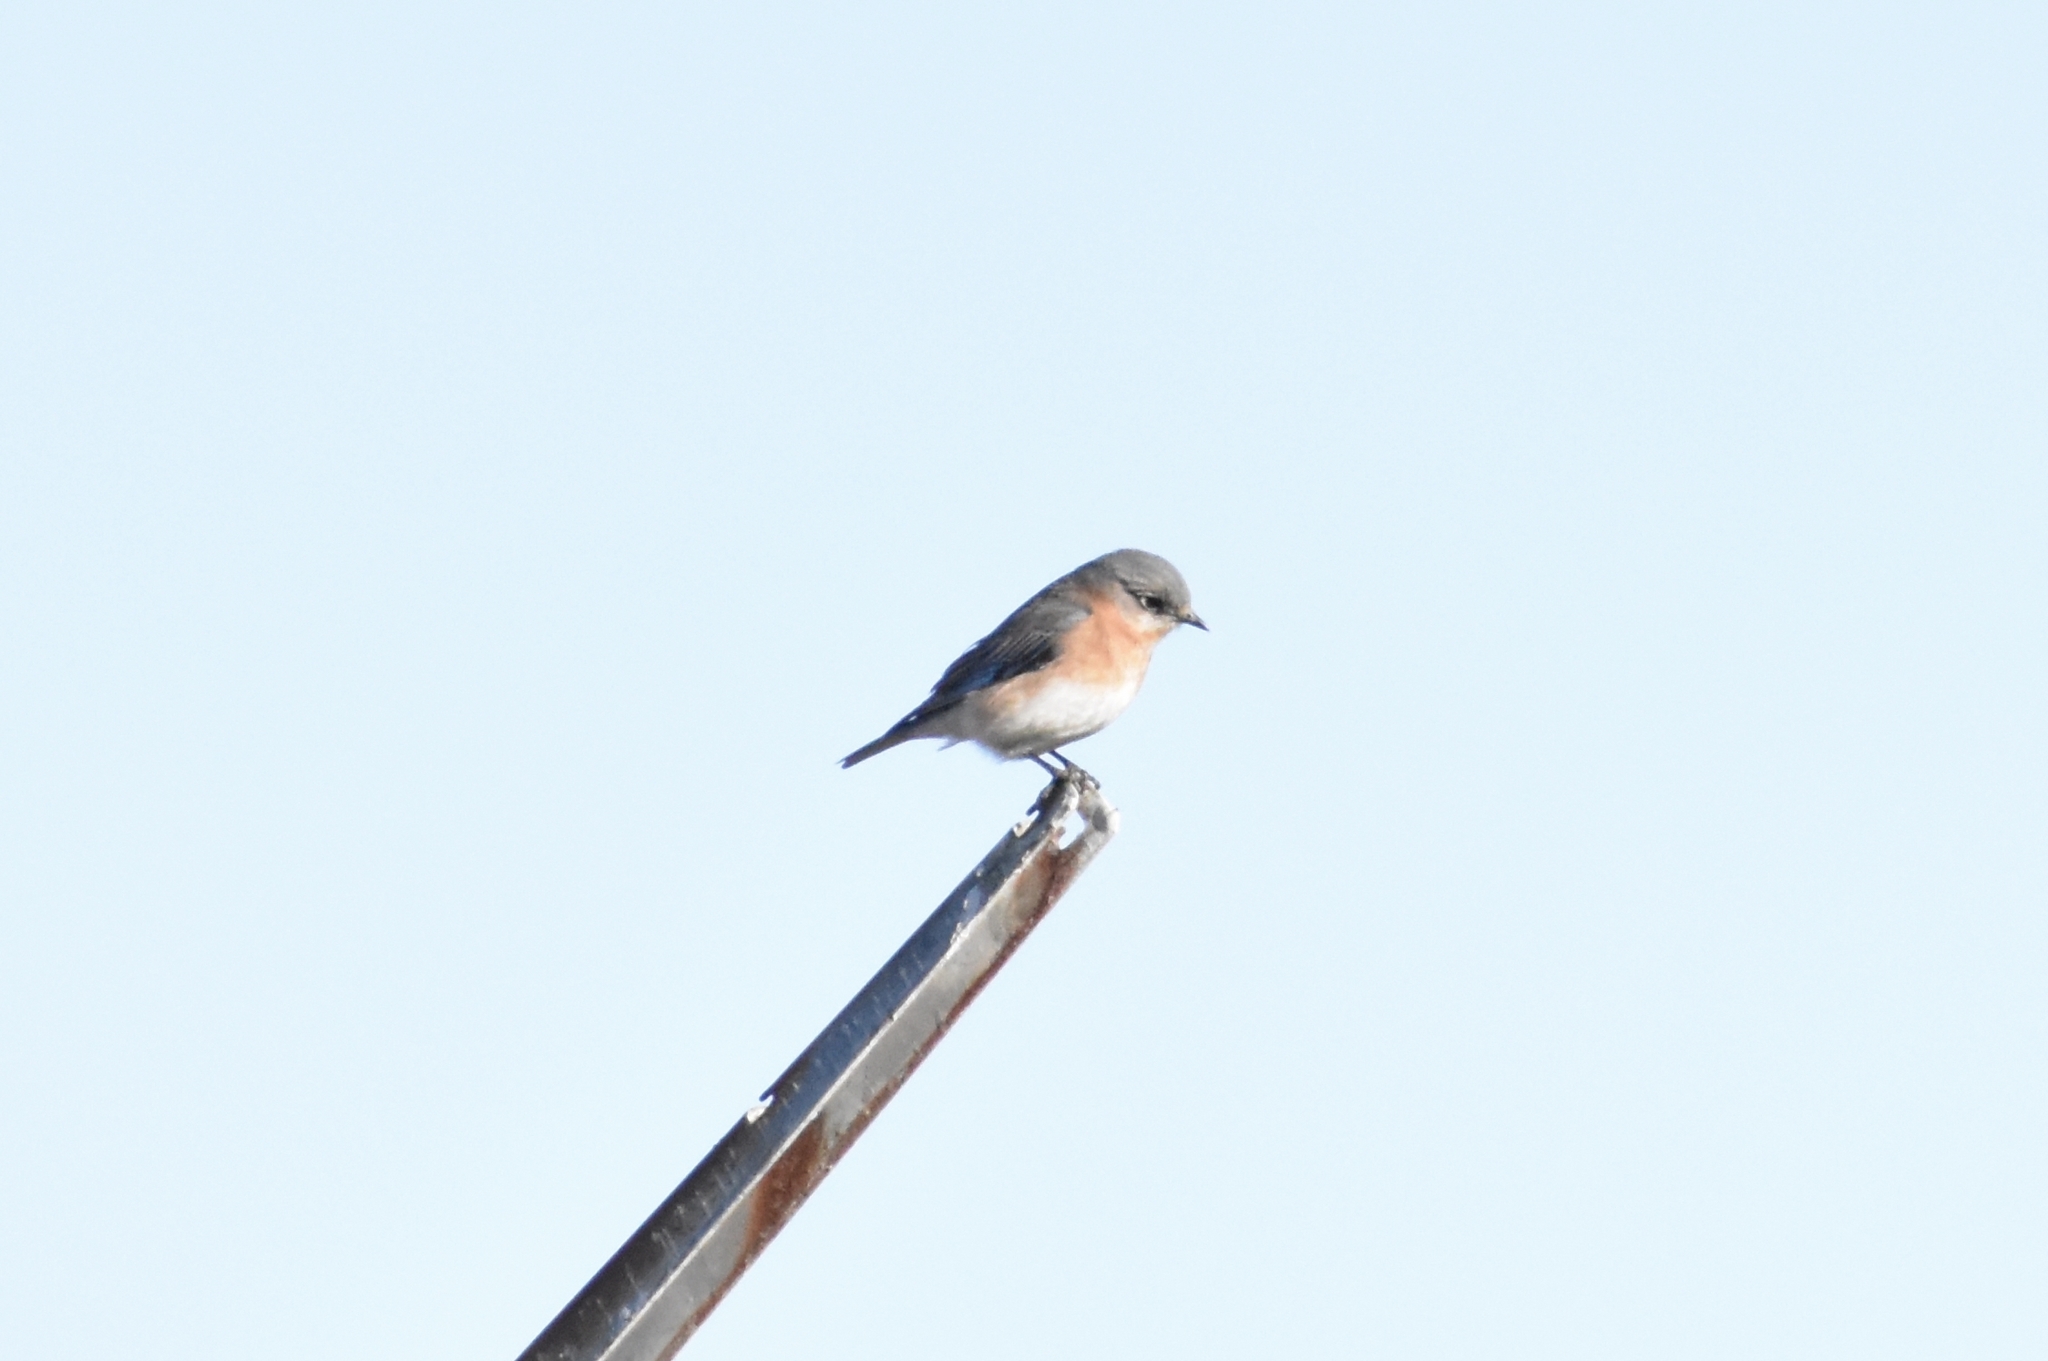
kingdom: Animalia
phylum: Chordata
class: Aves
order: Passeriformes
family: Turdidae
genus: Sialia
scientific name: Sialia sialis
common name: Eastern bluebird
